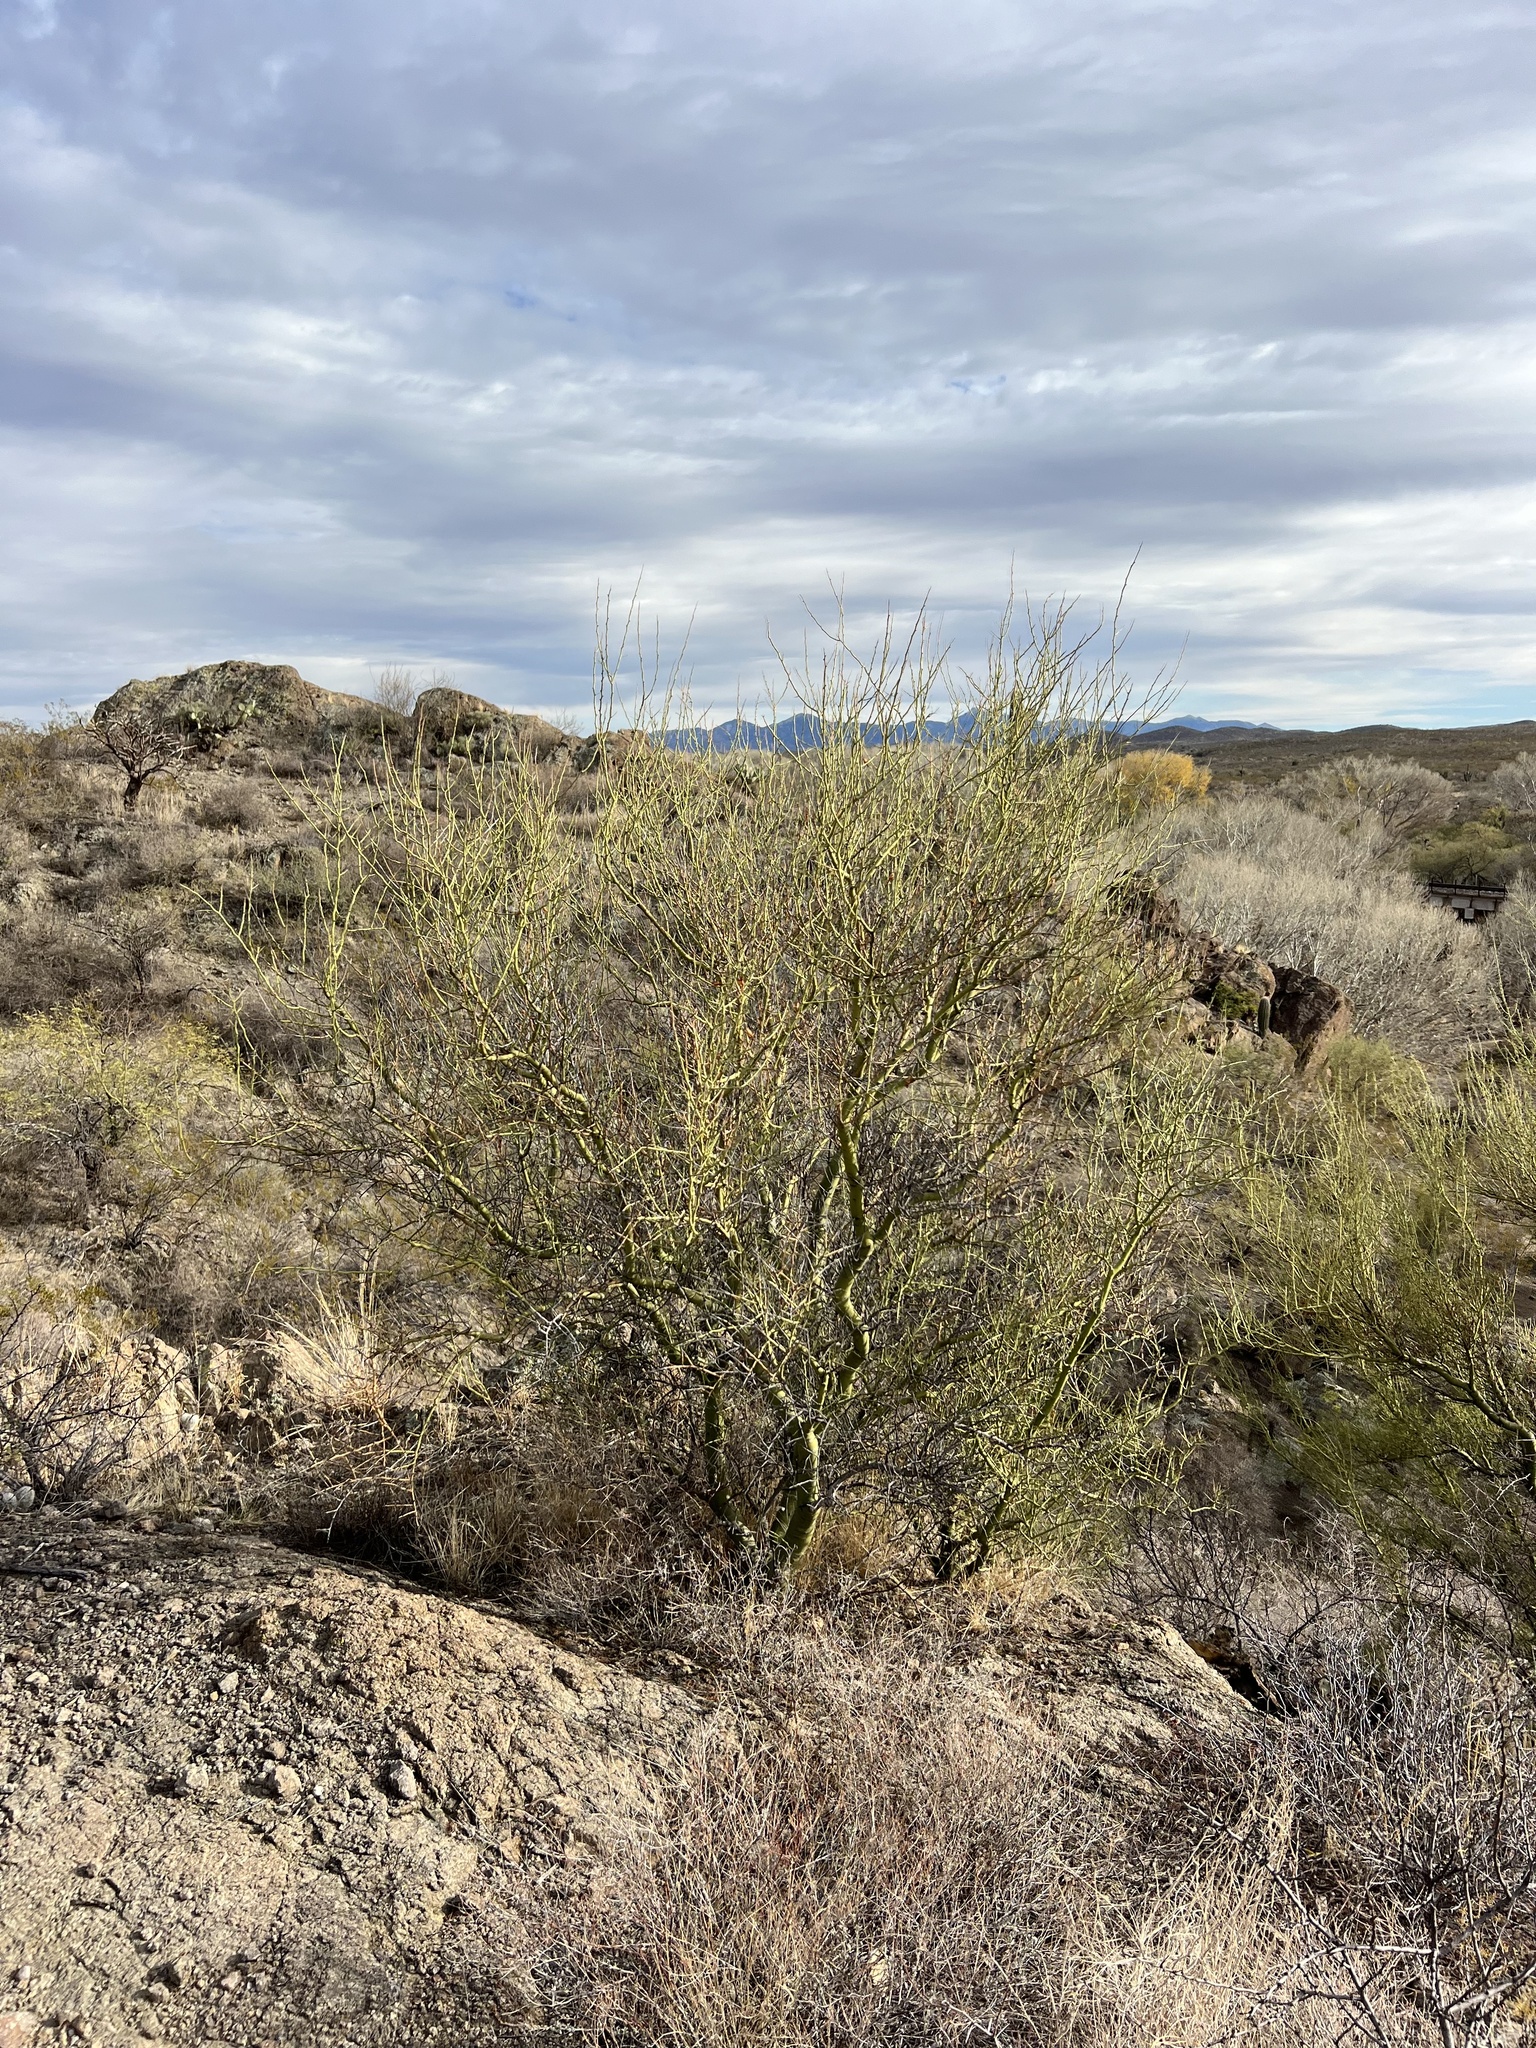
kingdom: Plantae
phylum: Tracheophyta
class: Magnoliopsida
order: Fabales
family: Fabaceae
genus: Parkinsonia
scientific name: Parkinsonia microphylla
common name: Yellow paloverde
